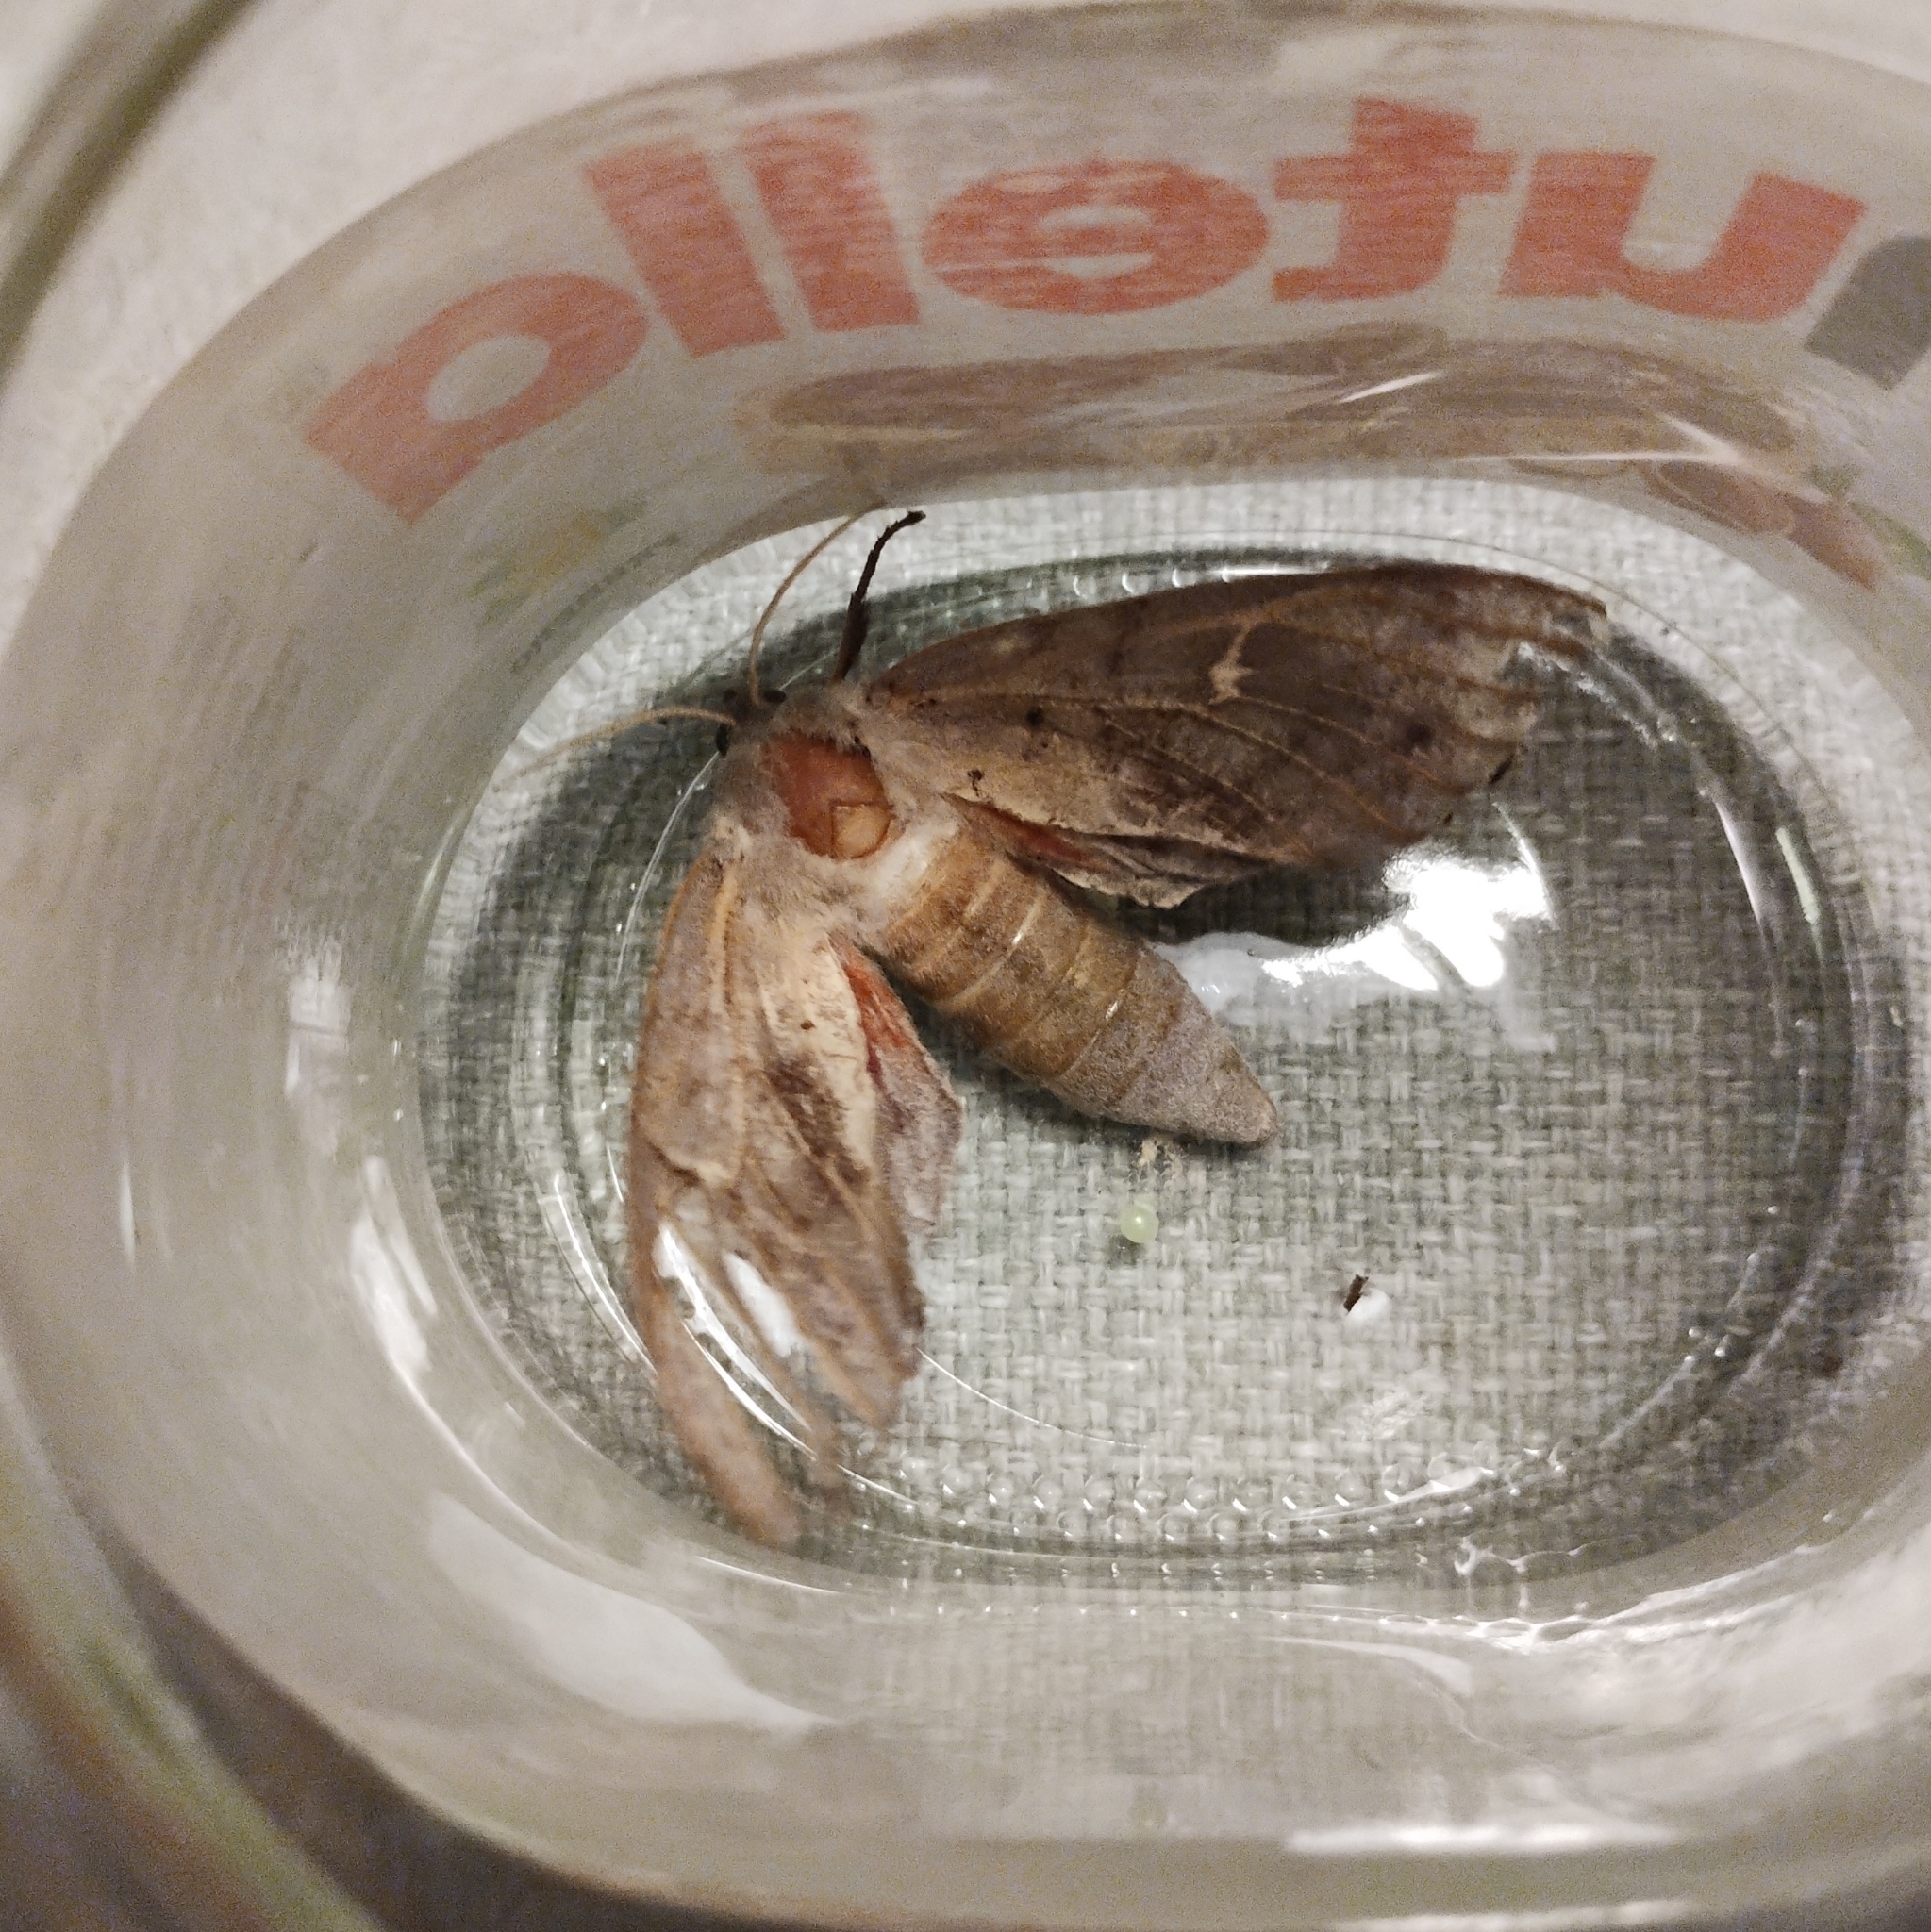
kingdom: Animalia
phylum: Arthropoda
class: Insecta
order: Lepidoptera
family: Sphingidae
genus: Laothoe
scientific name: Laothoe populi
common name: Poplar hawk-moth
